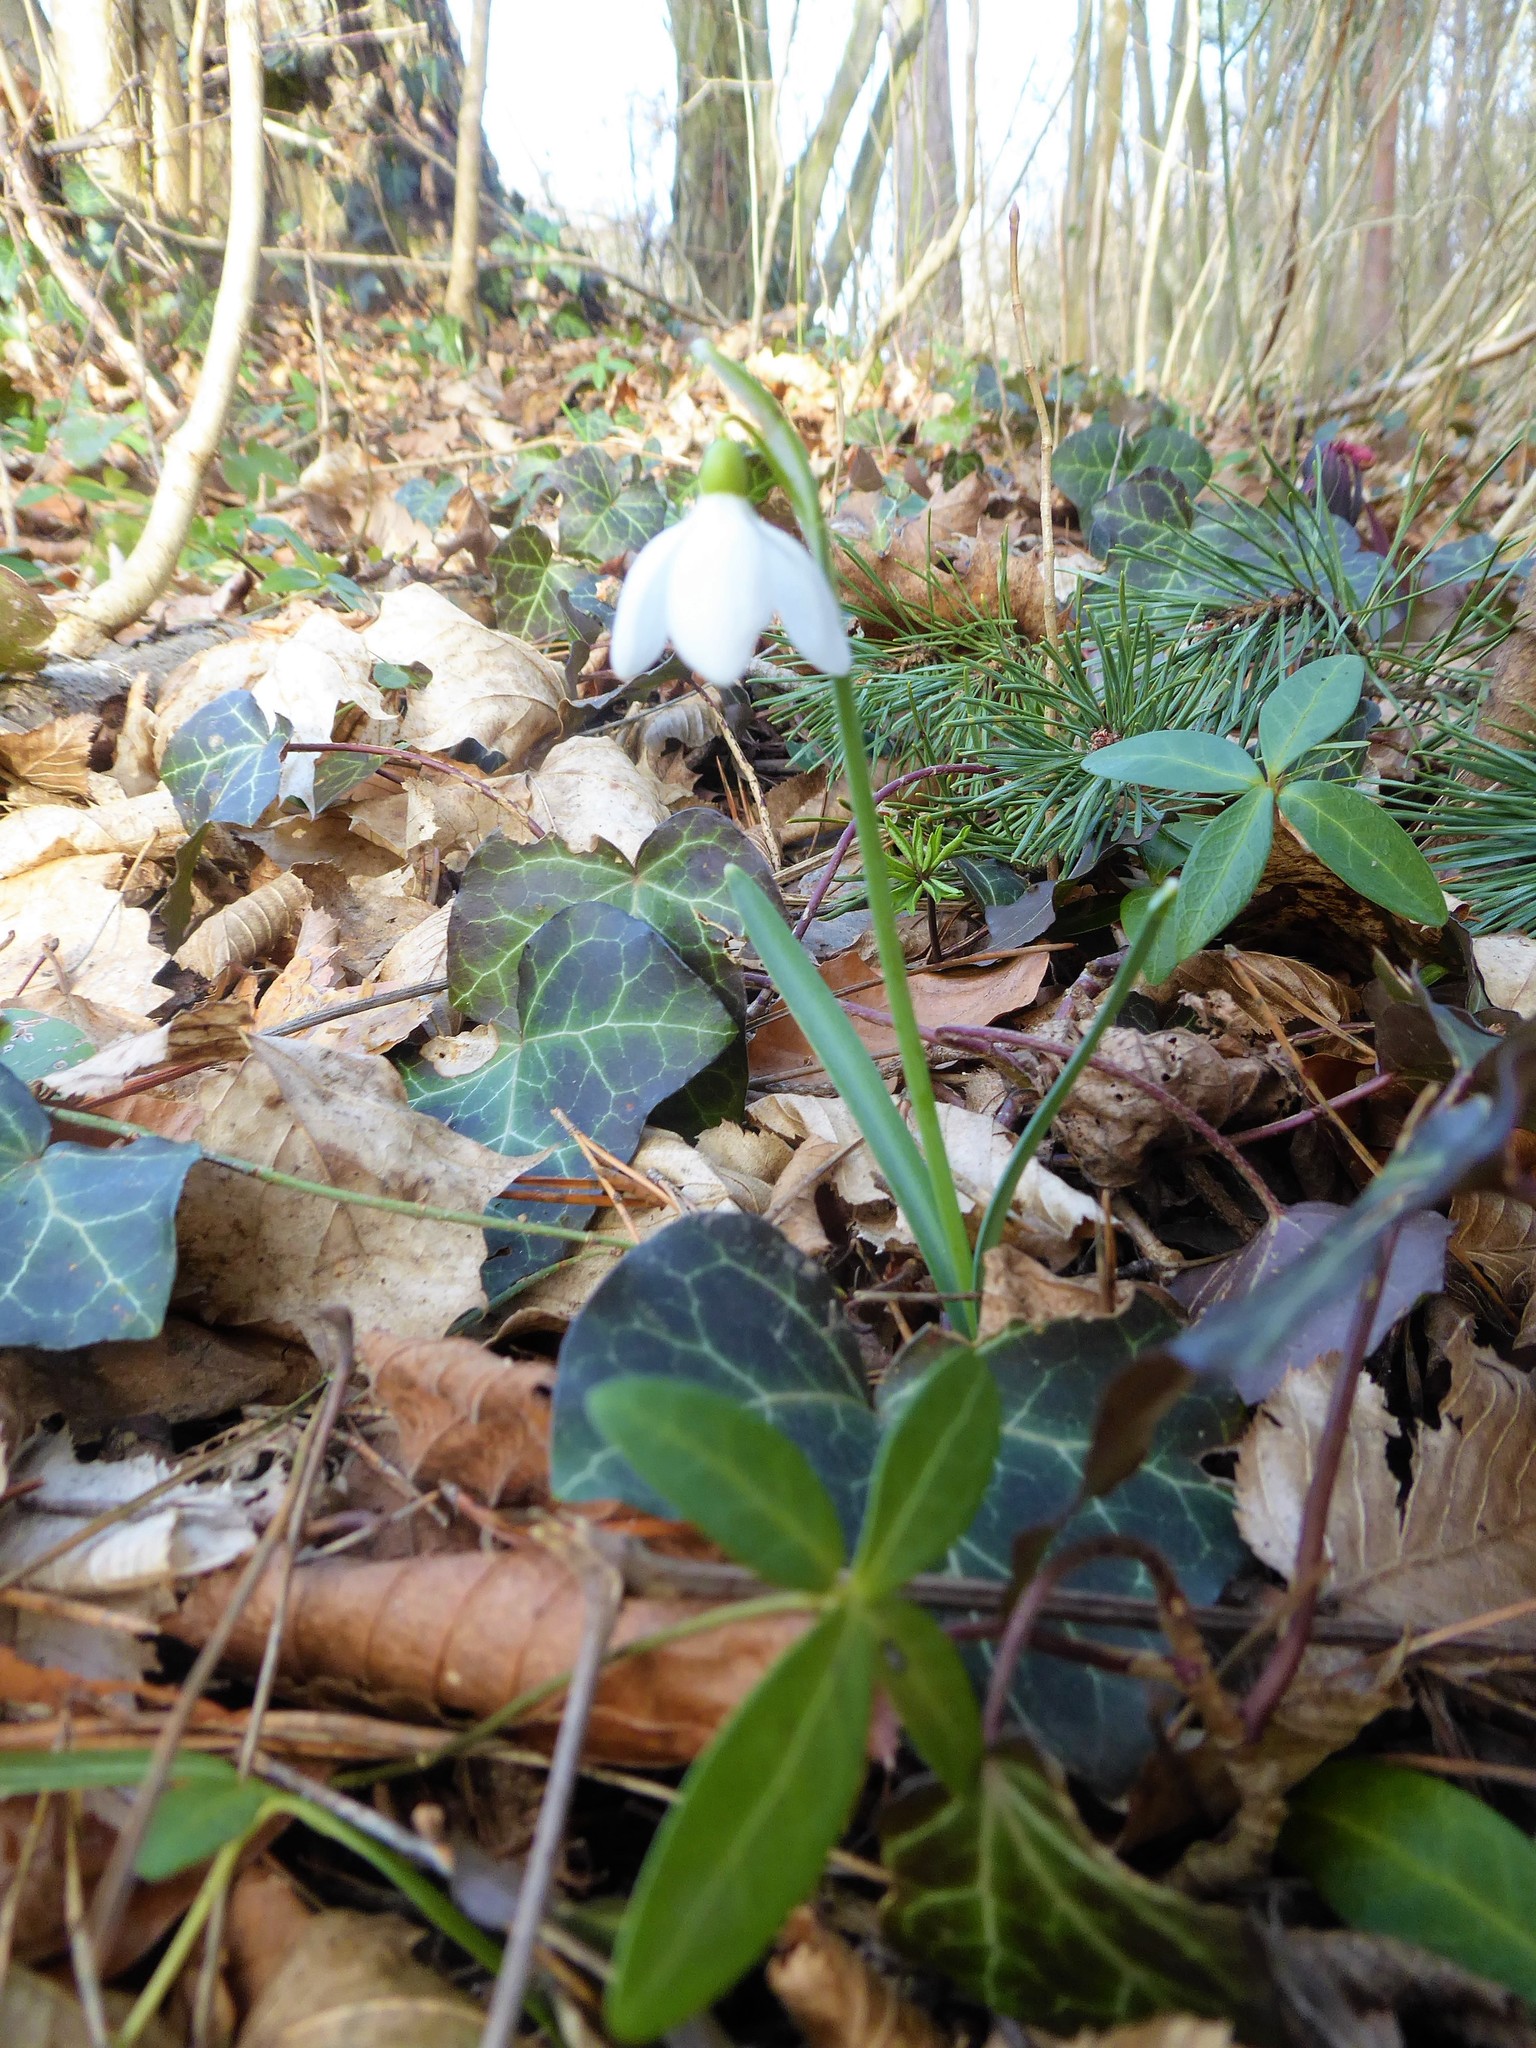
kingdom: Plantae
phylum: Tracheophyta
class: Liliopsida
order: Asparagales
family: Amaryllidaceae
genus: Galanthus
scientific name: Galanthus nivalis
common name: Snowdrop
